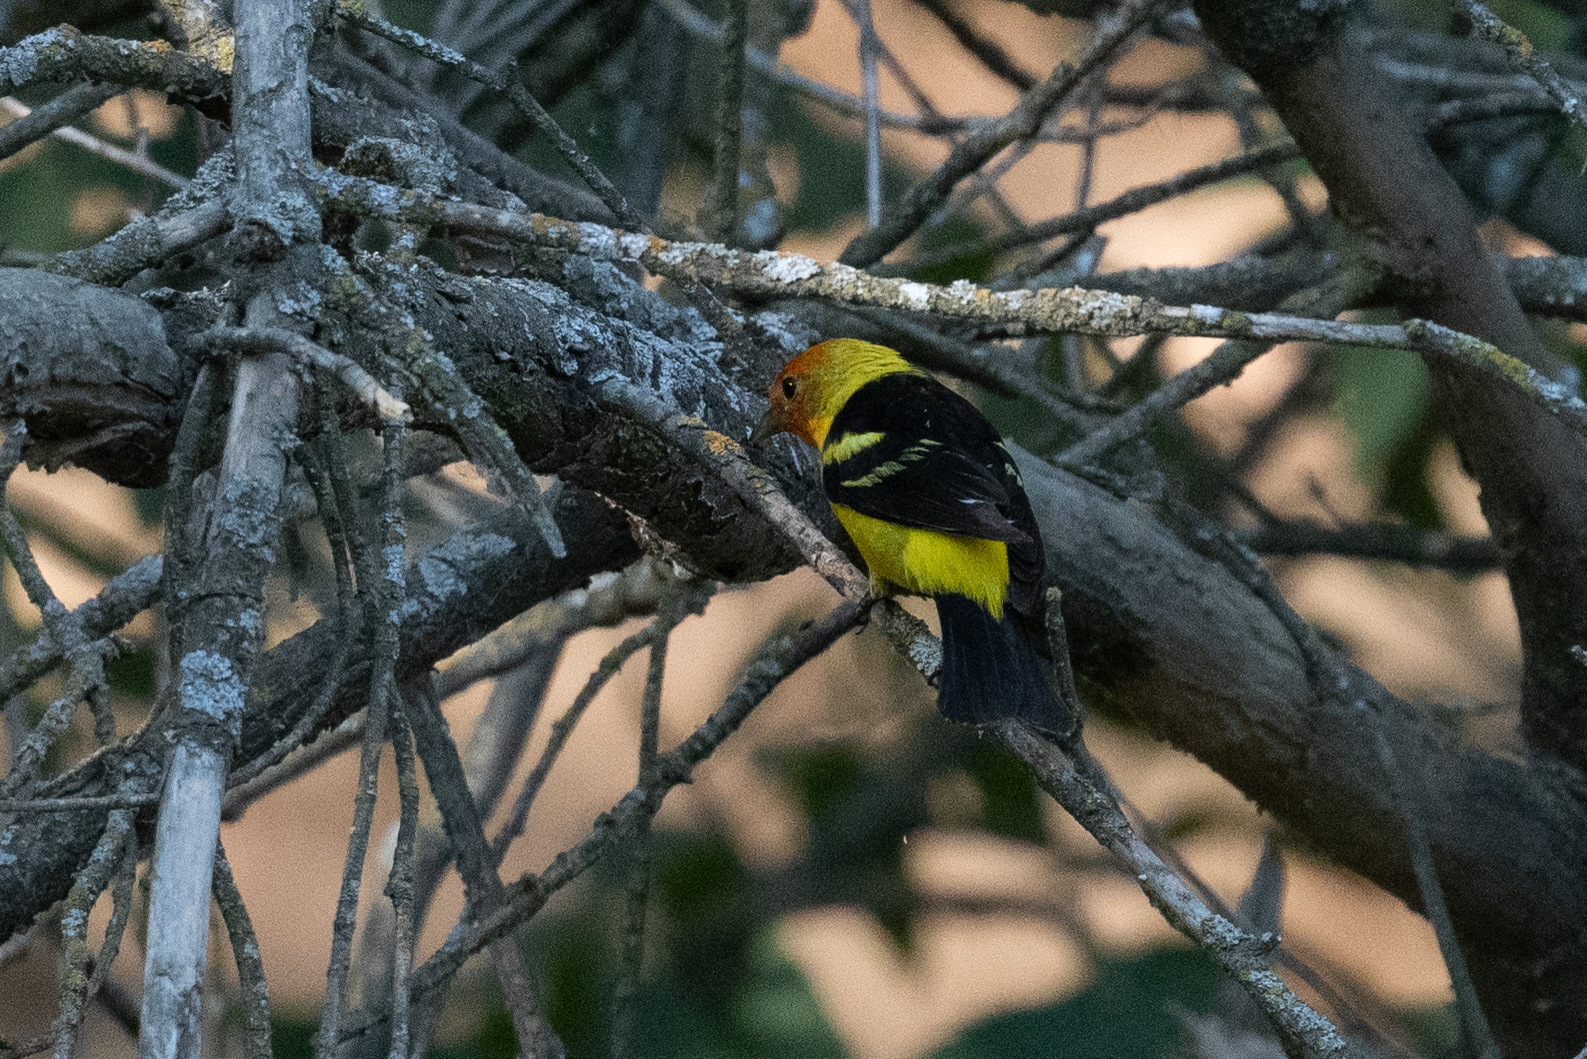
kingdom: Animalia
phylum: Chordata
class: Aves
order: Passeriformes
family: Cardinalidae
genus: Piranga
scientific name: Piranga ludoviciana
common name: Western tanager
